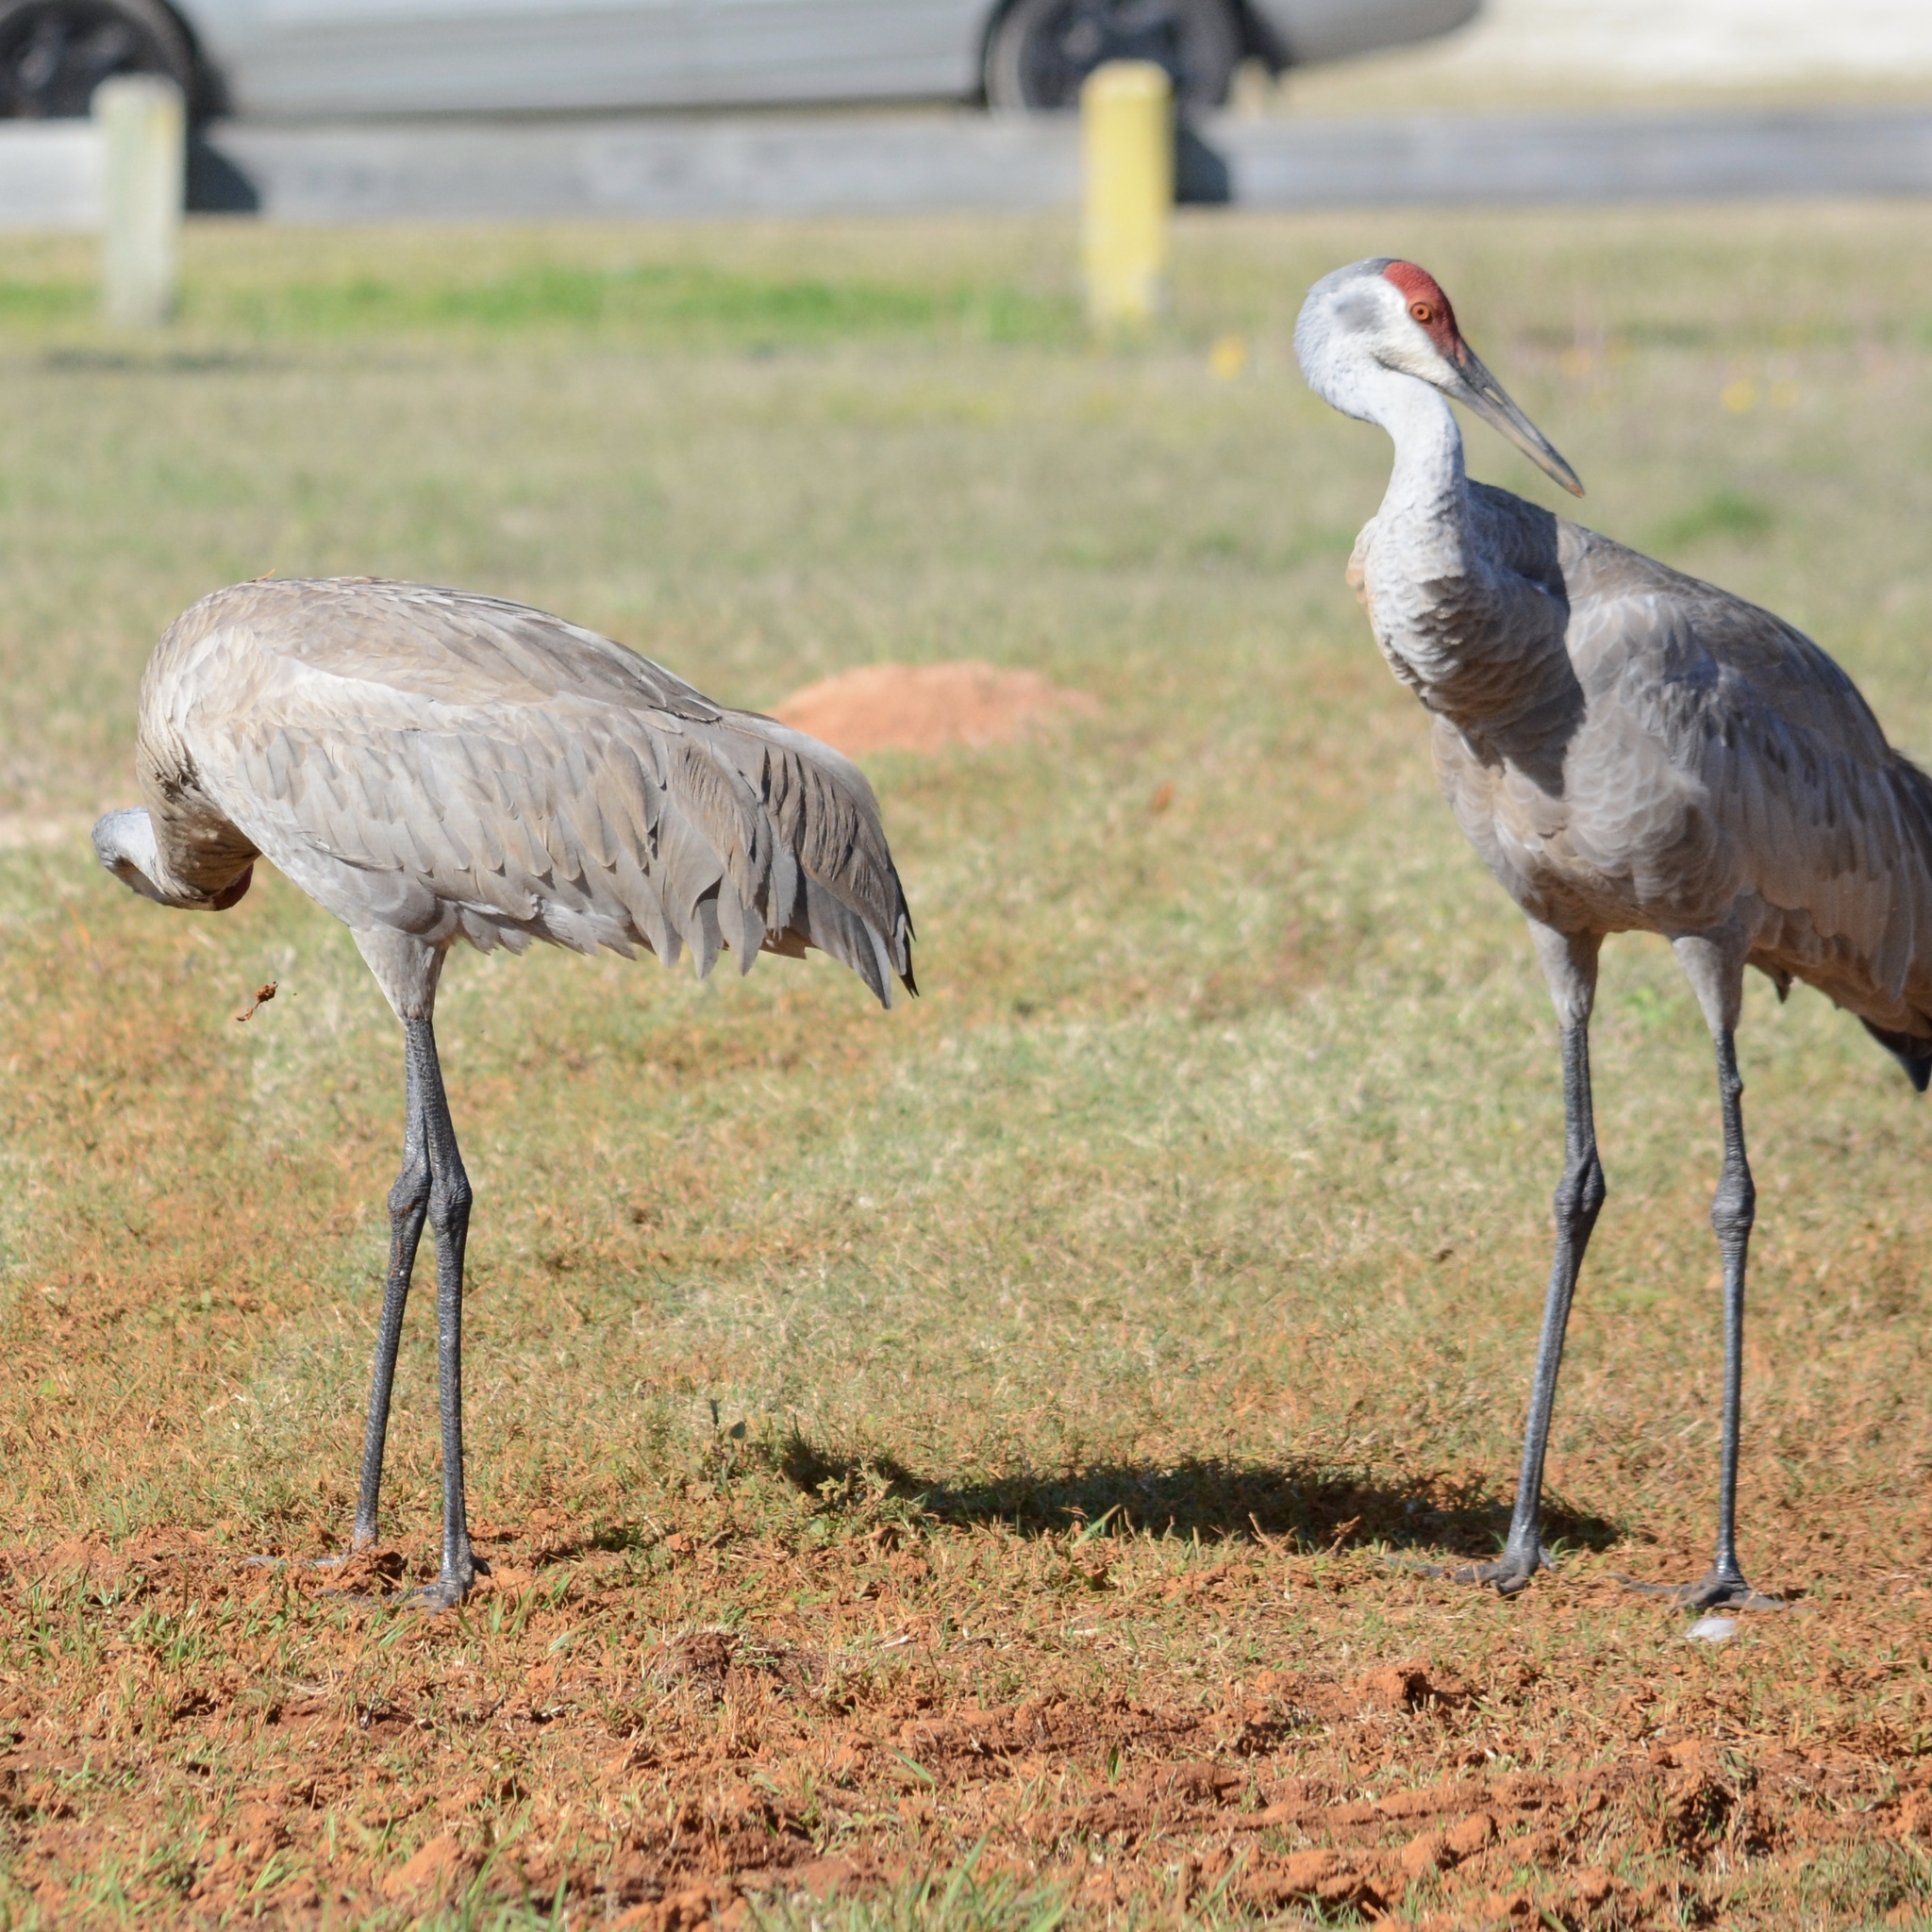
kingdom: Animalia
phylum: Chordata
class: Aves
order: Gruiformes
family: Gruidae
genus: Grus
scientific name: Grus canadensis
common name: Sandhill crane
